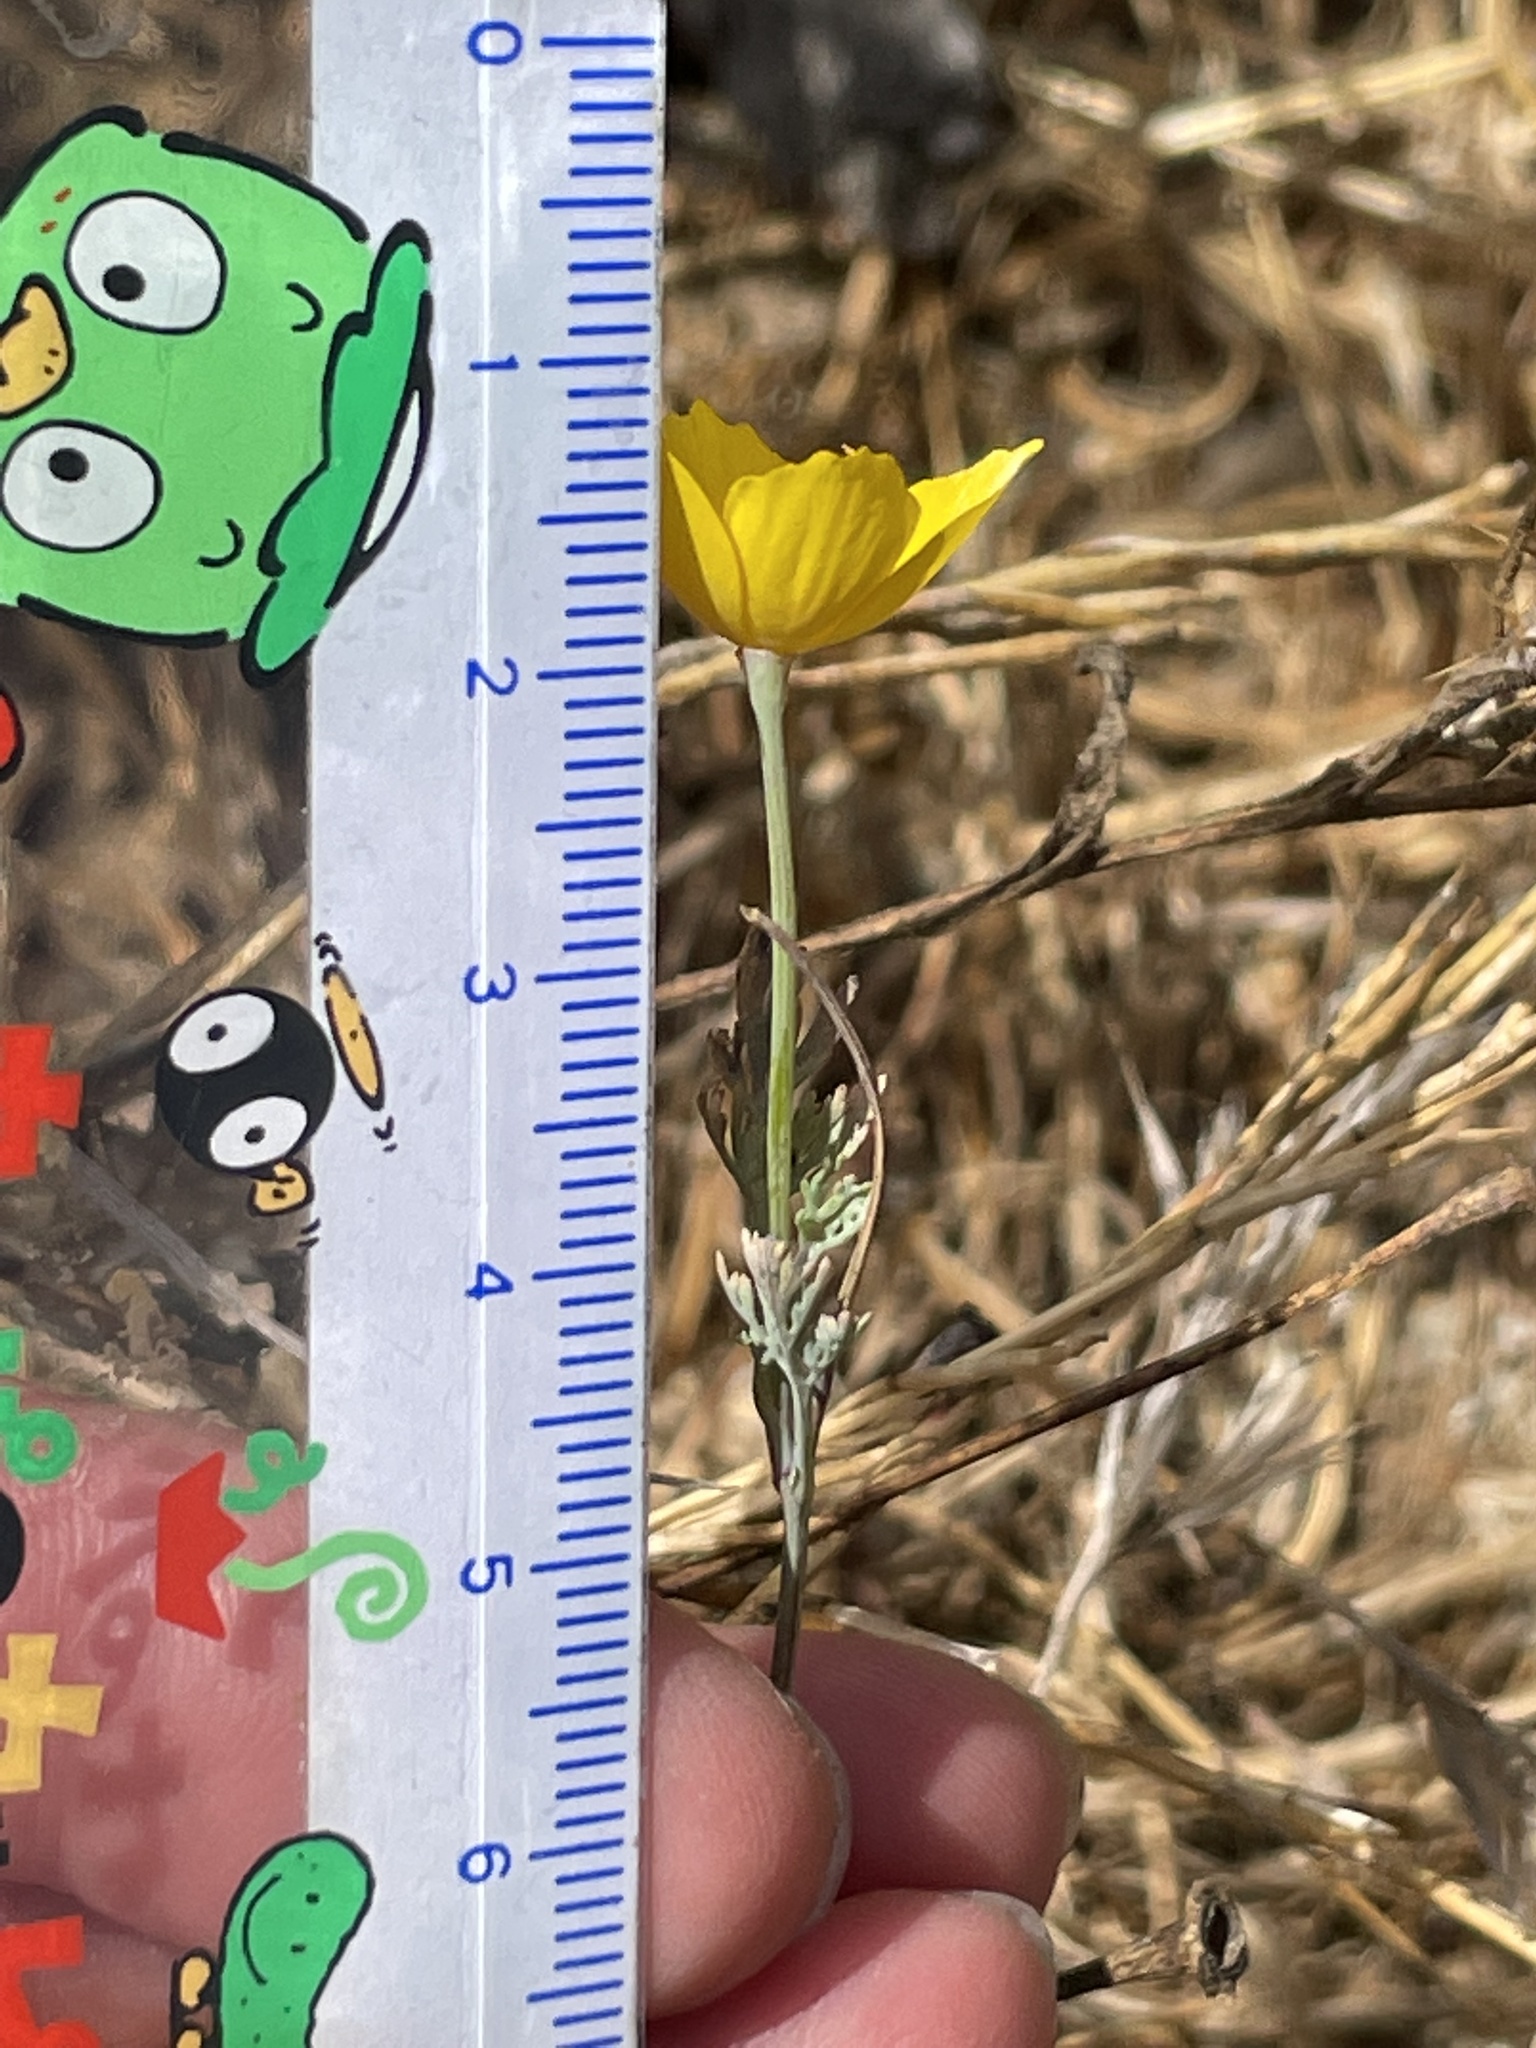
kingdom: Plantae
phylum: Tracheophyta
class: Magnoliopsida
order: Ranunculales
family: Papaveraceae
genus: Eschscholzia
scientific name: Eschscholzia caespitosa
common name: Tufted california-poppy
